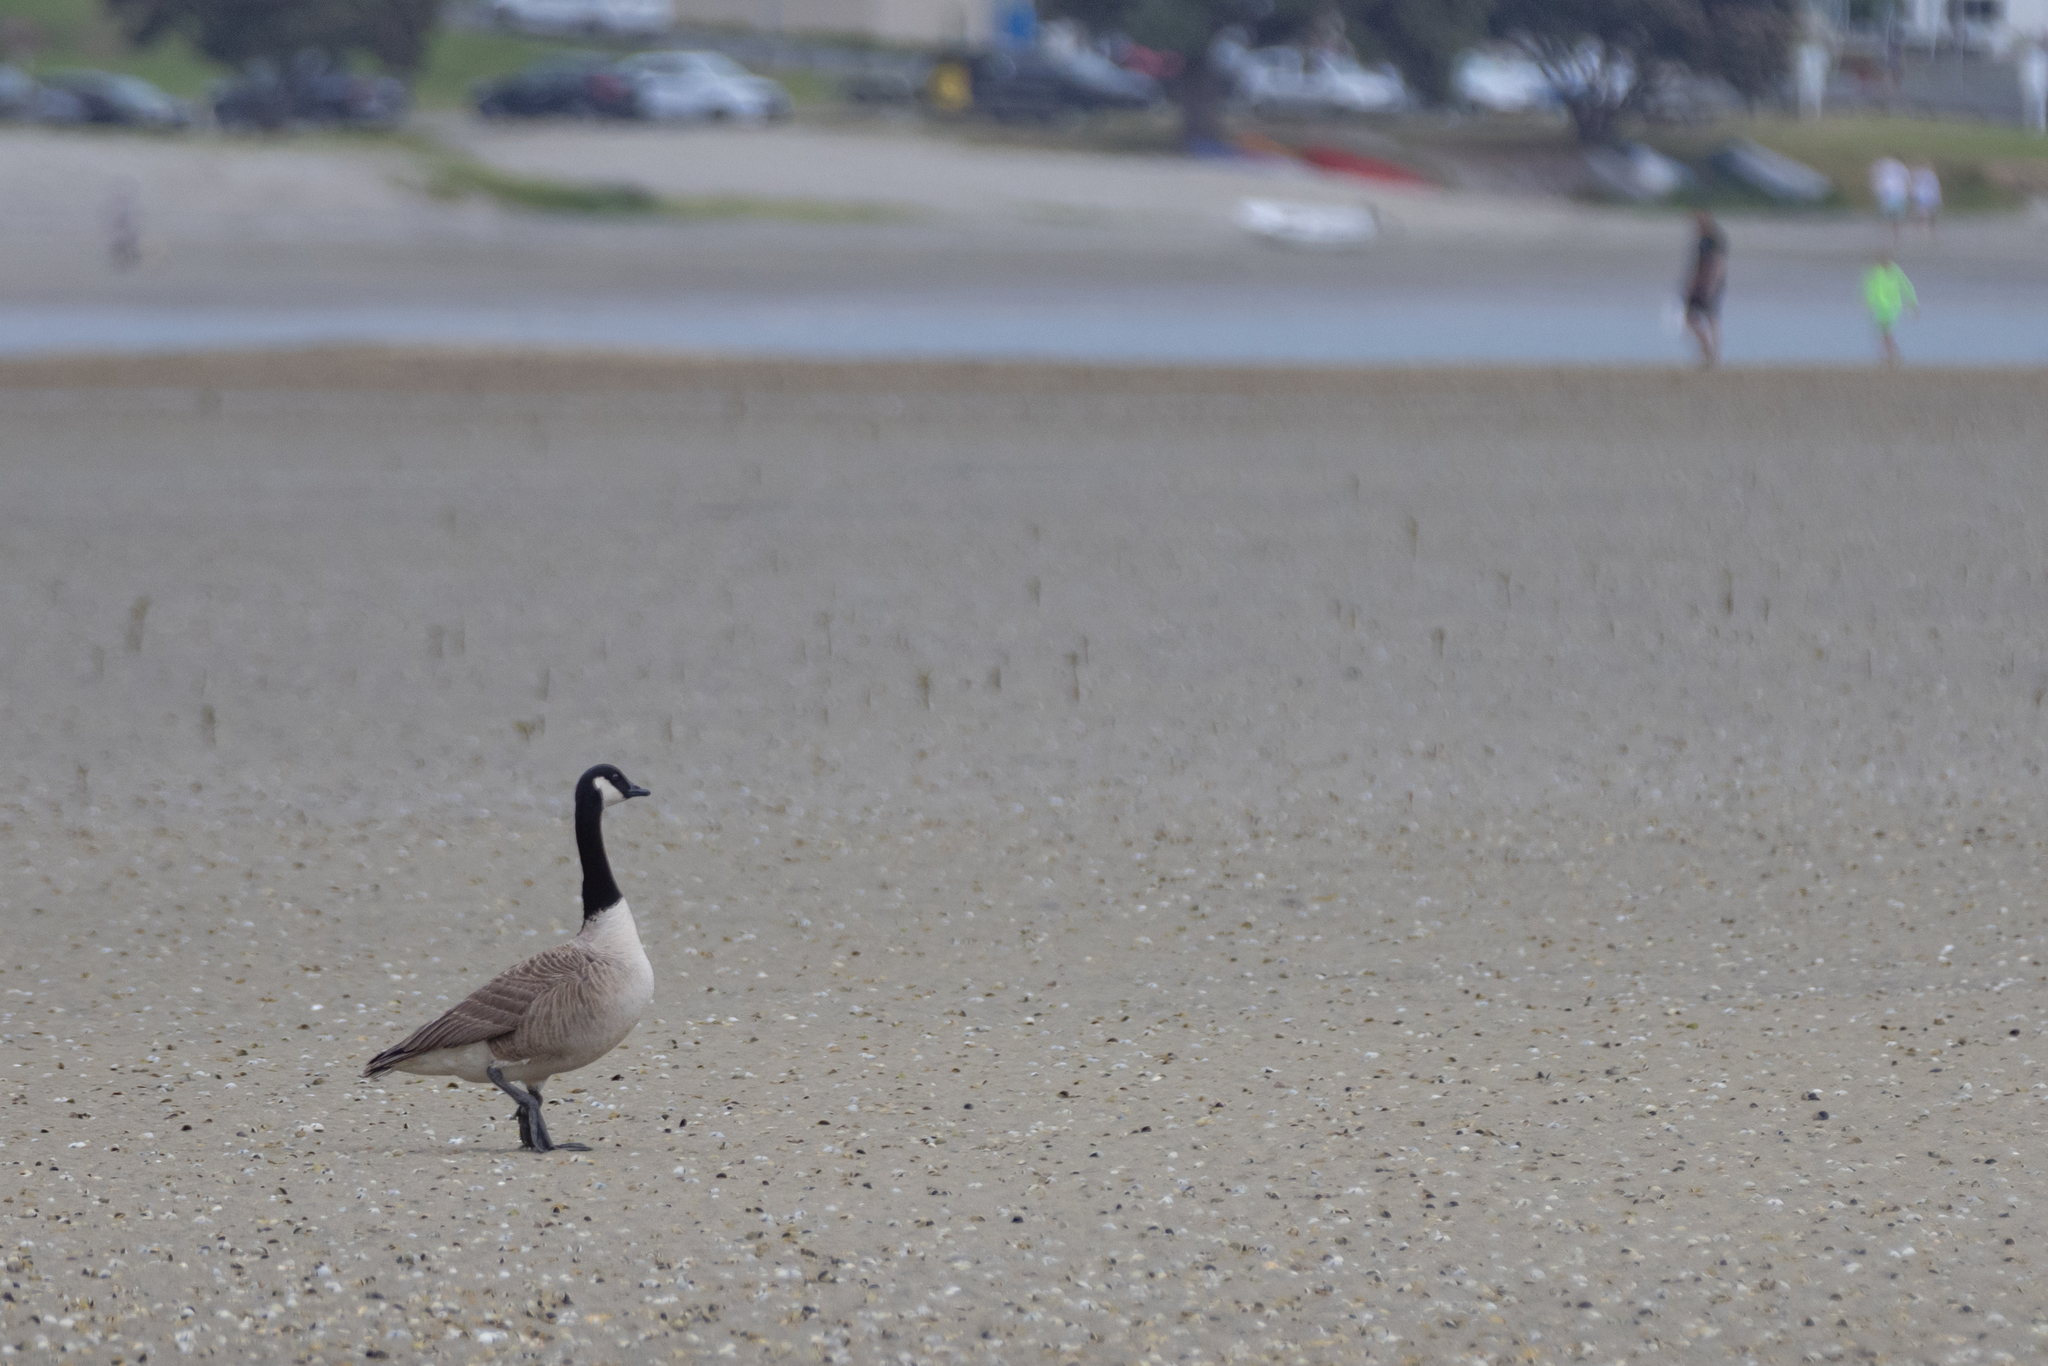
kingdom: Animalia
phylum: Chordata
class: Aves
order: Anseriformes
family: Anatidae
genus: Branta
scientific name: Branta canadensis
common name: Canada goose
